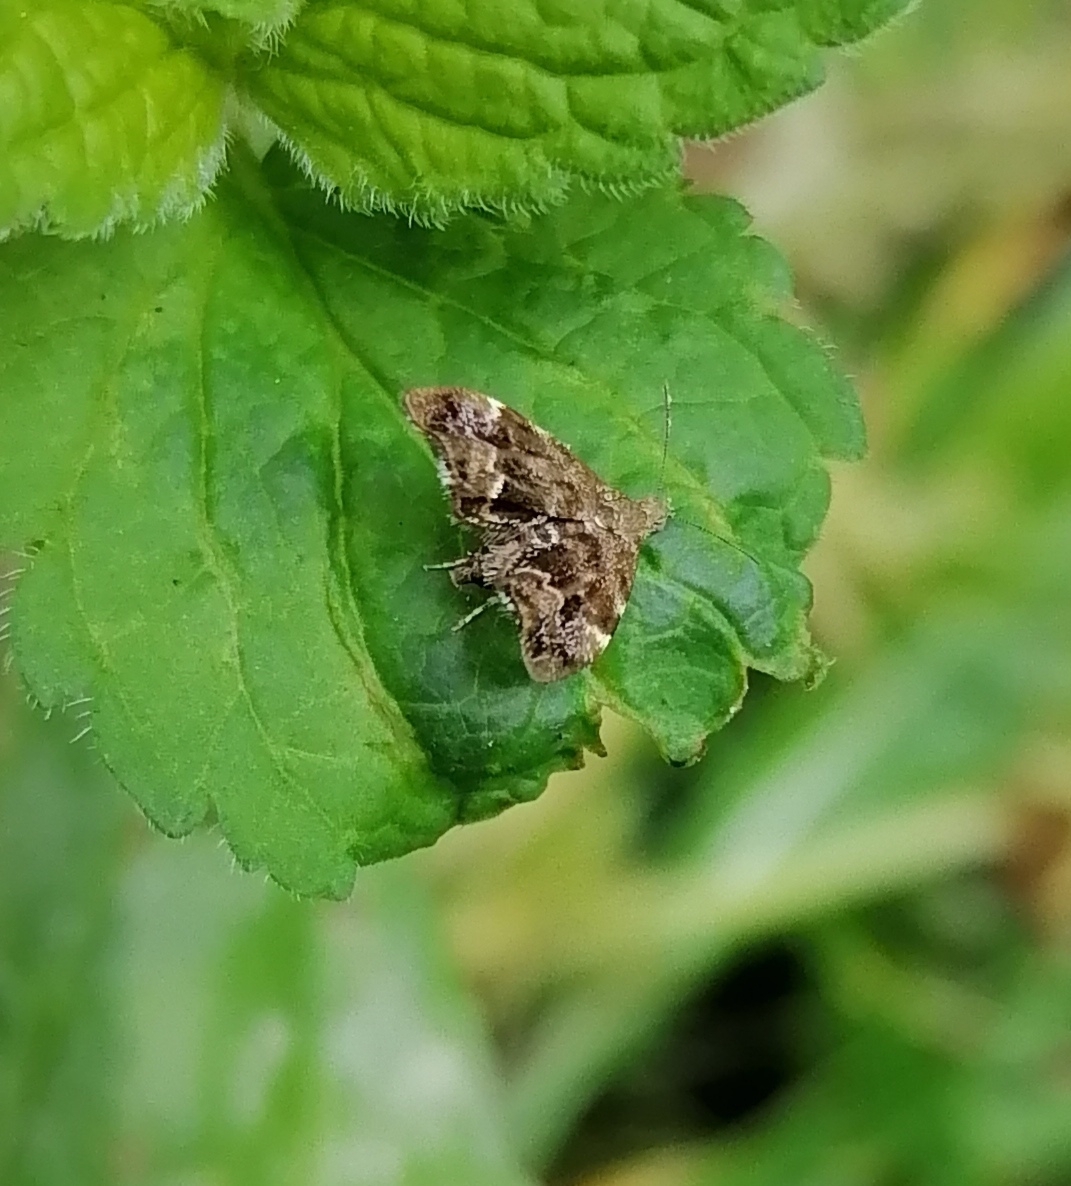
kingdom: Animalia
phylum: Arthropoda
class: Insecta
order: Lepidoptera
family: Choreutidae
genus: Anthophila
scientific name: Anthophila fabriciana
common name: Nettle-tap
